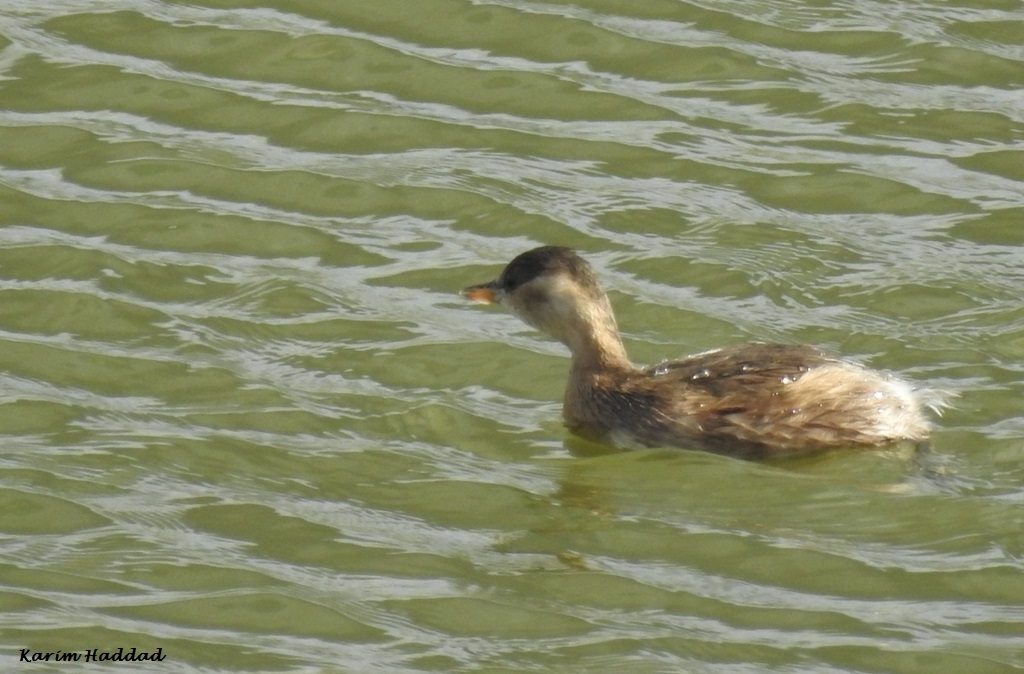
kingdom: Animalia
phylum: Chordata
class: Aves
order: Podicipediformes
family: Podicipedidae
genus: Tachybaptus
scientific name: Tachybaptus ruficollis
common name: Little grebe
